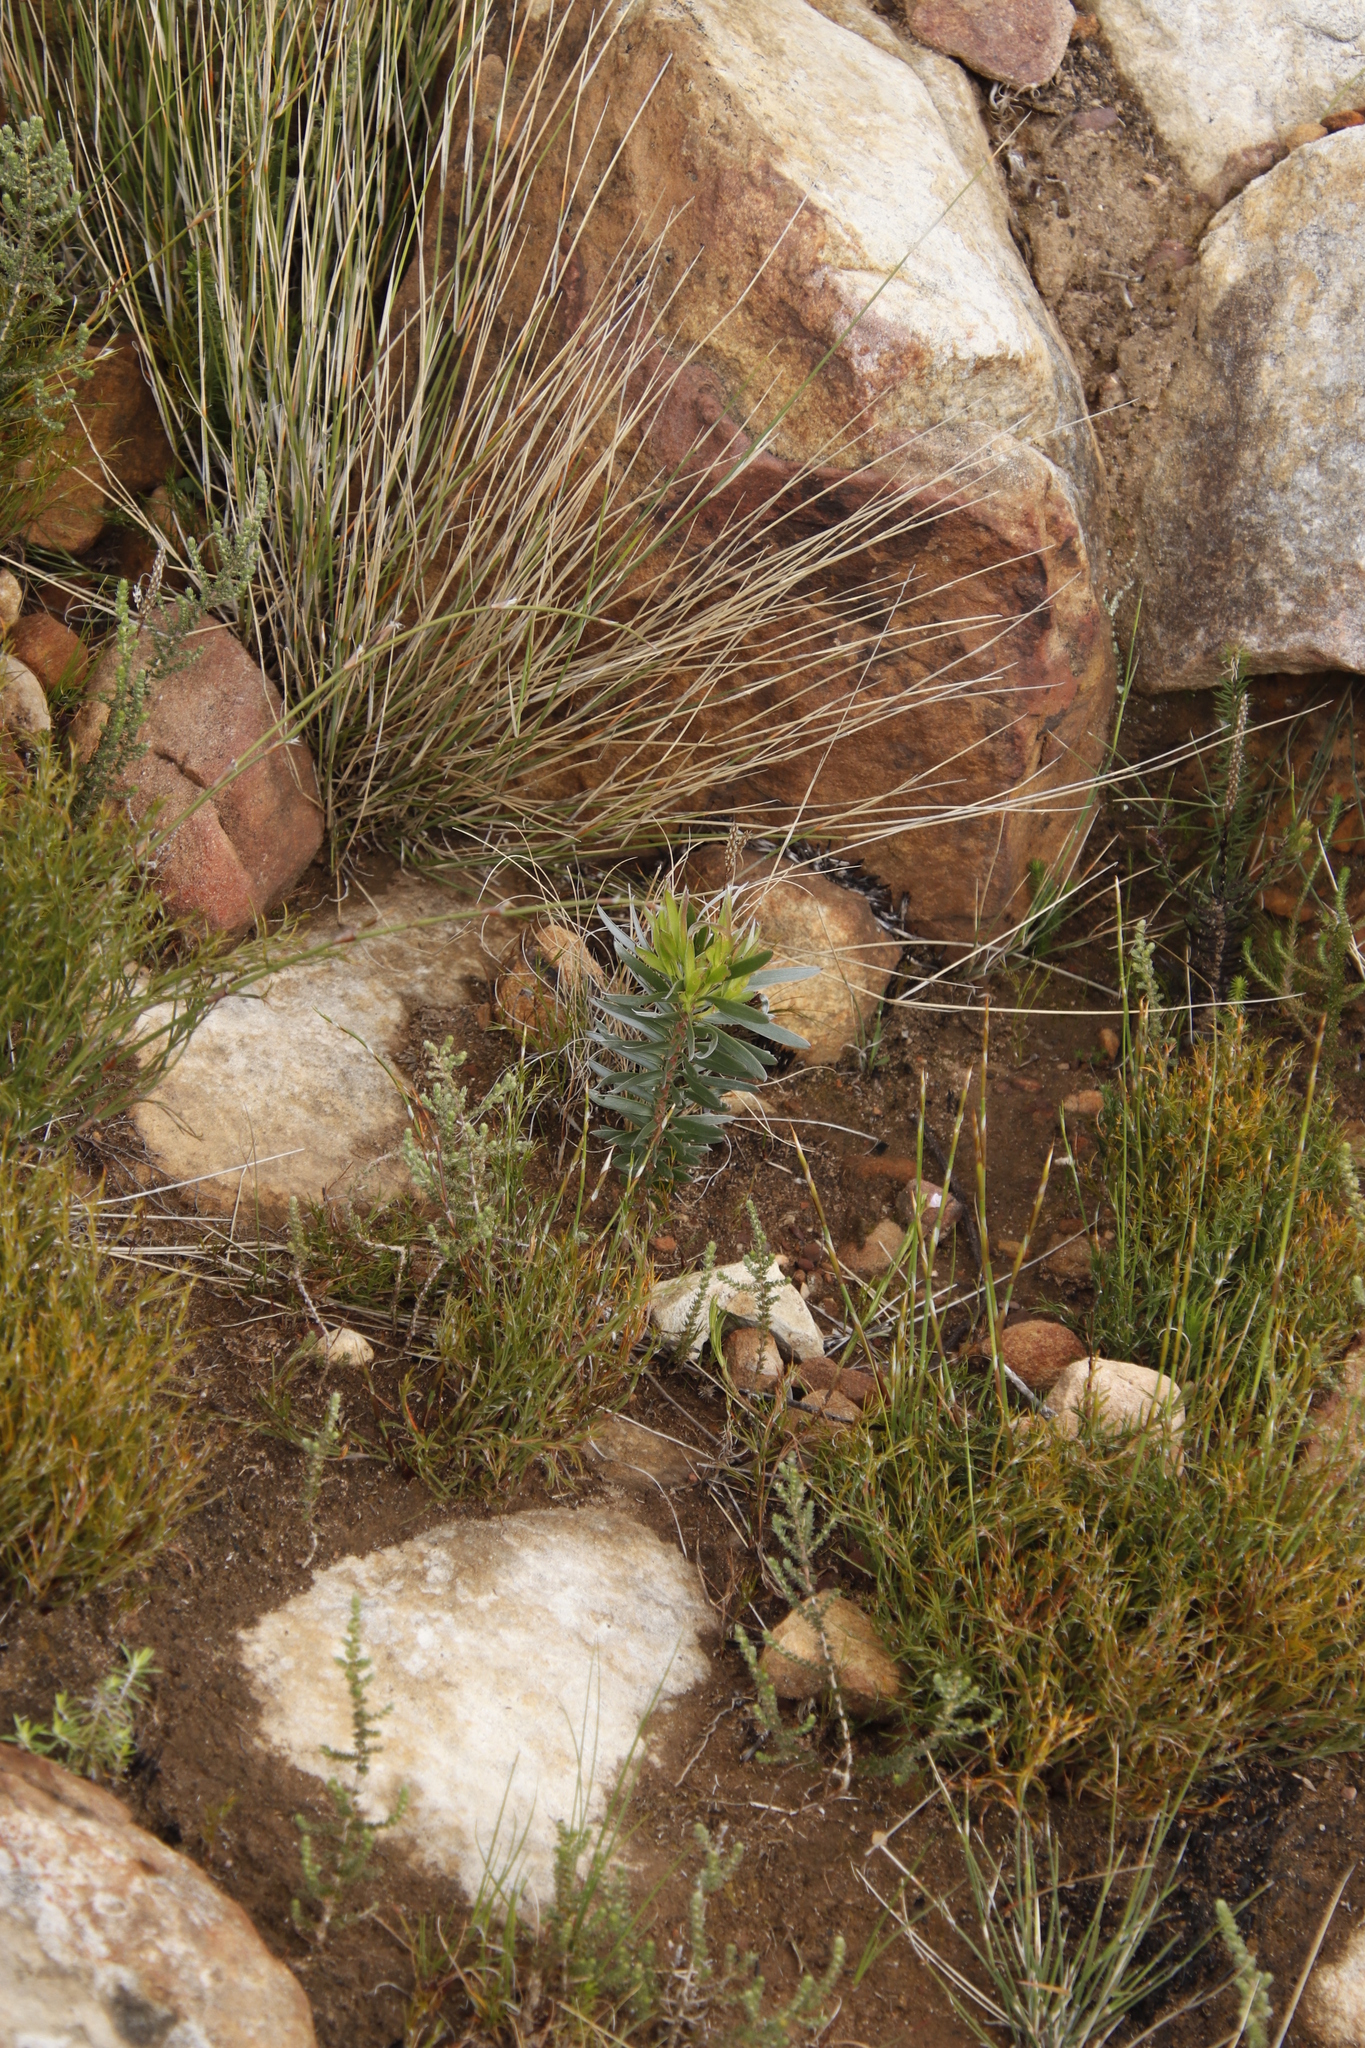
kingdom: Plantae
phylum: Tracheophyta
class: Magnoliopsida
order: Proteales
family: Proteaceae
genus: Leucadendron
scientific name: Leucadendron xanthoconus
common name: Sickle-leaf conebush
